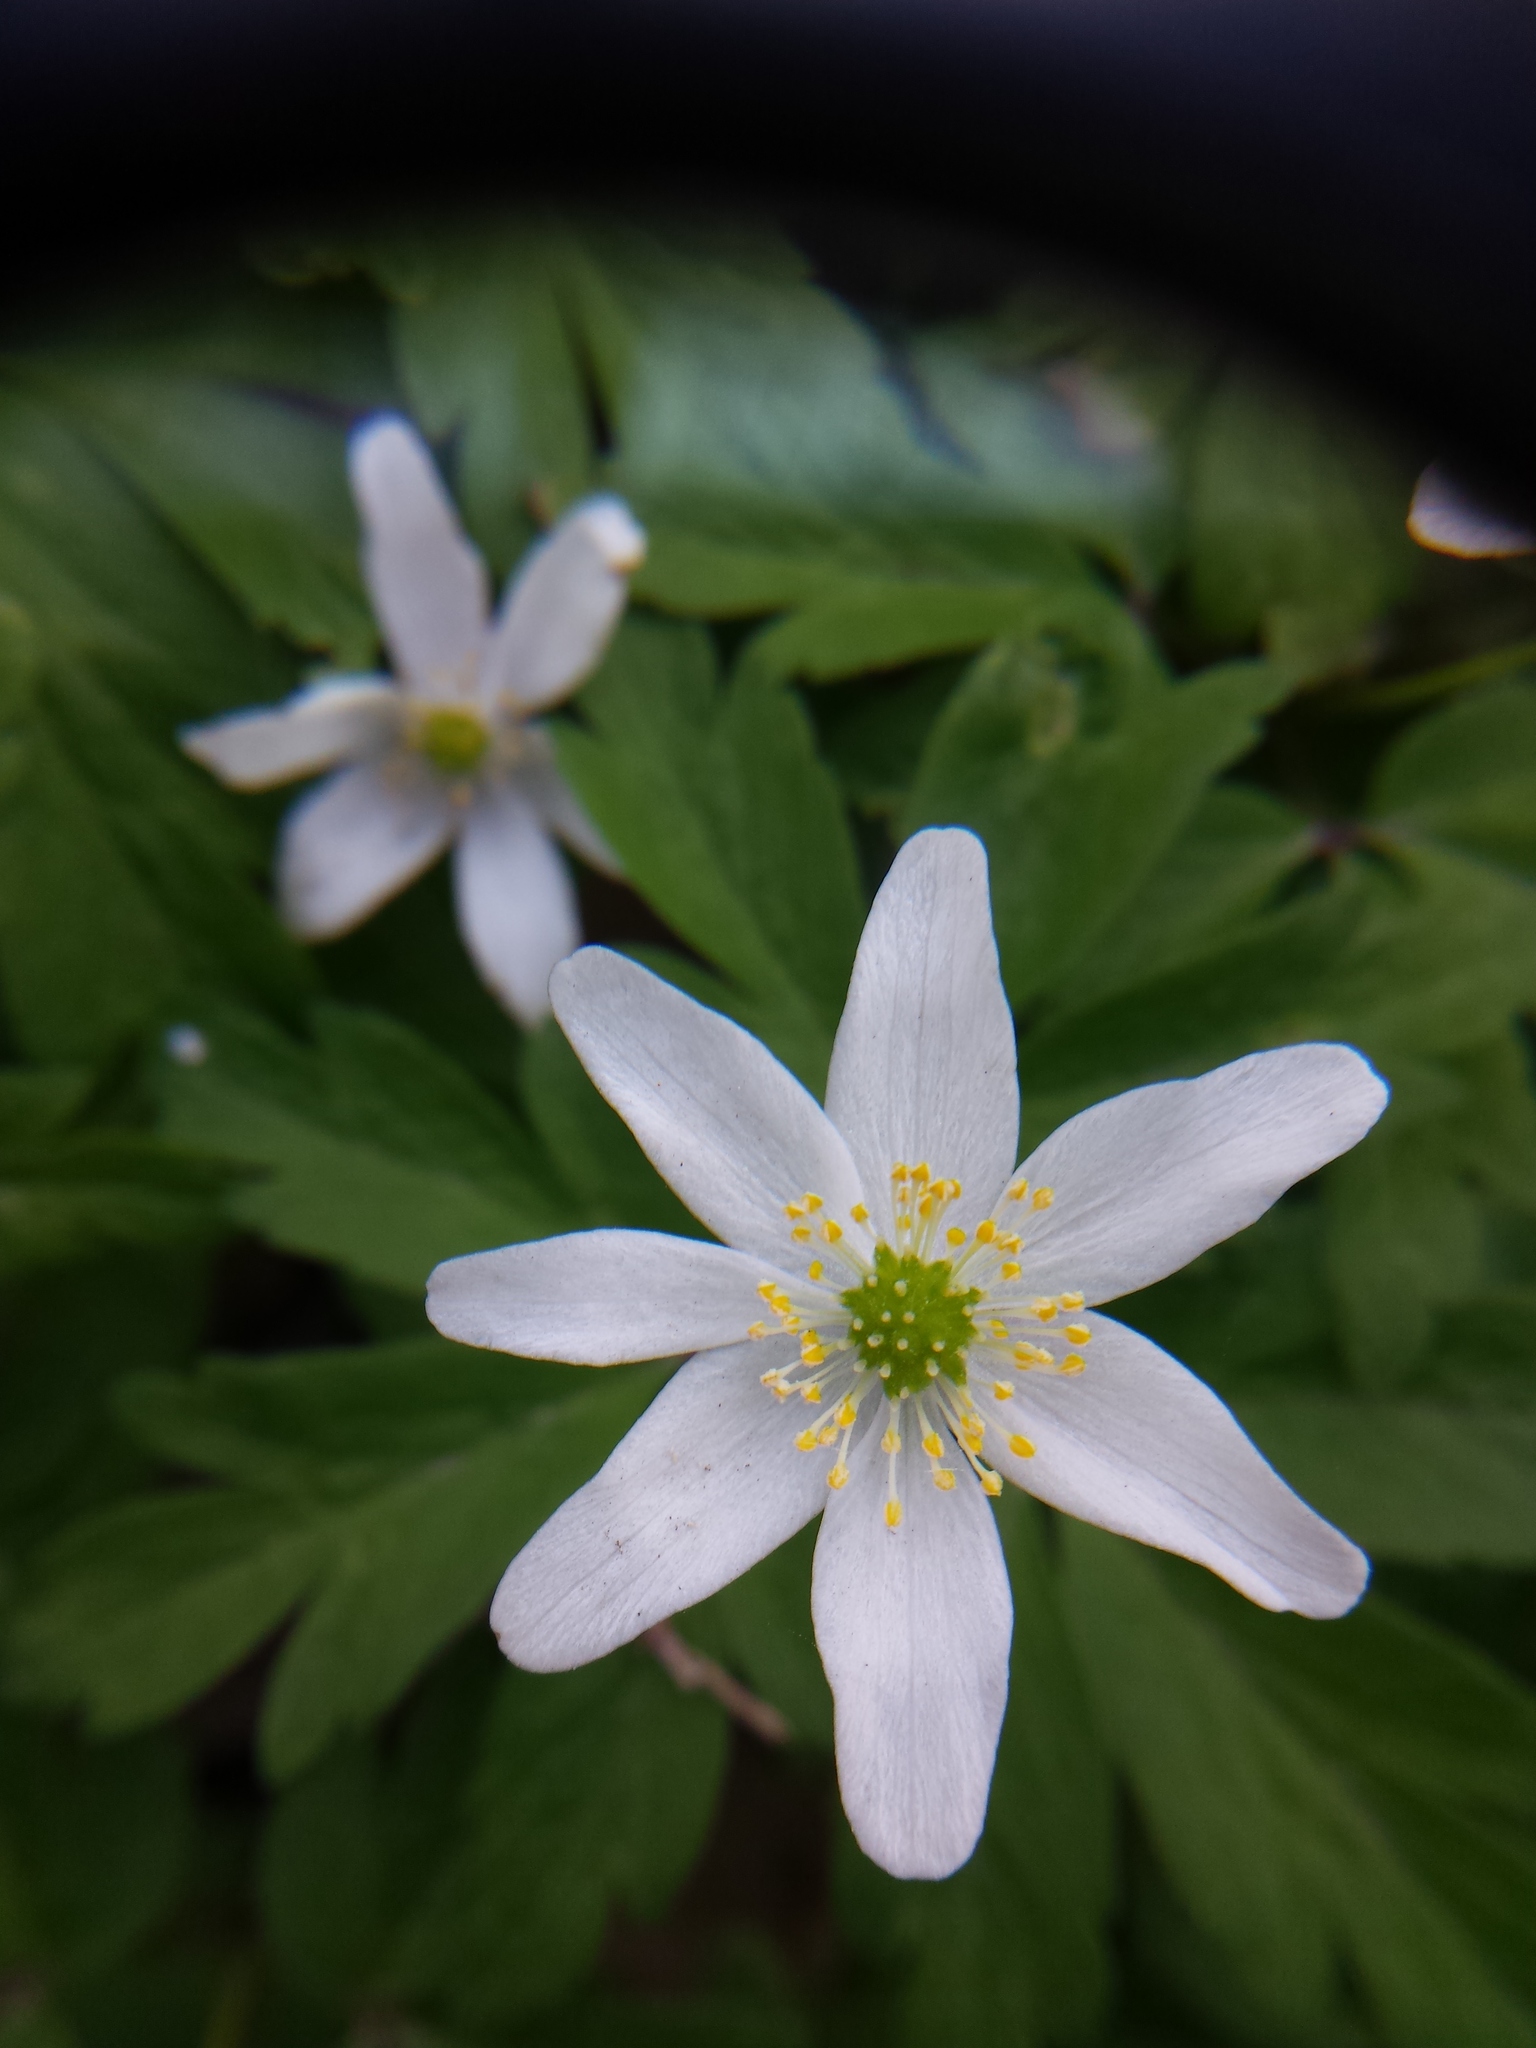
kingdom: Plantae
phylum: Tracheophyta
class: Magnoliopsida
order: Ranunculales
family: Ranunculaceae
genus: Anemone
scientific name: Anemone nemorosa
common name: Wood anemone
